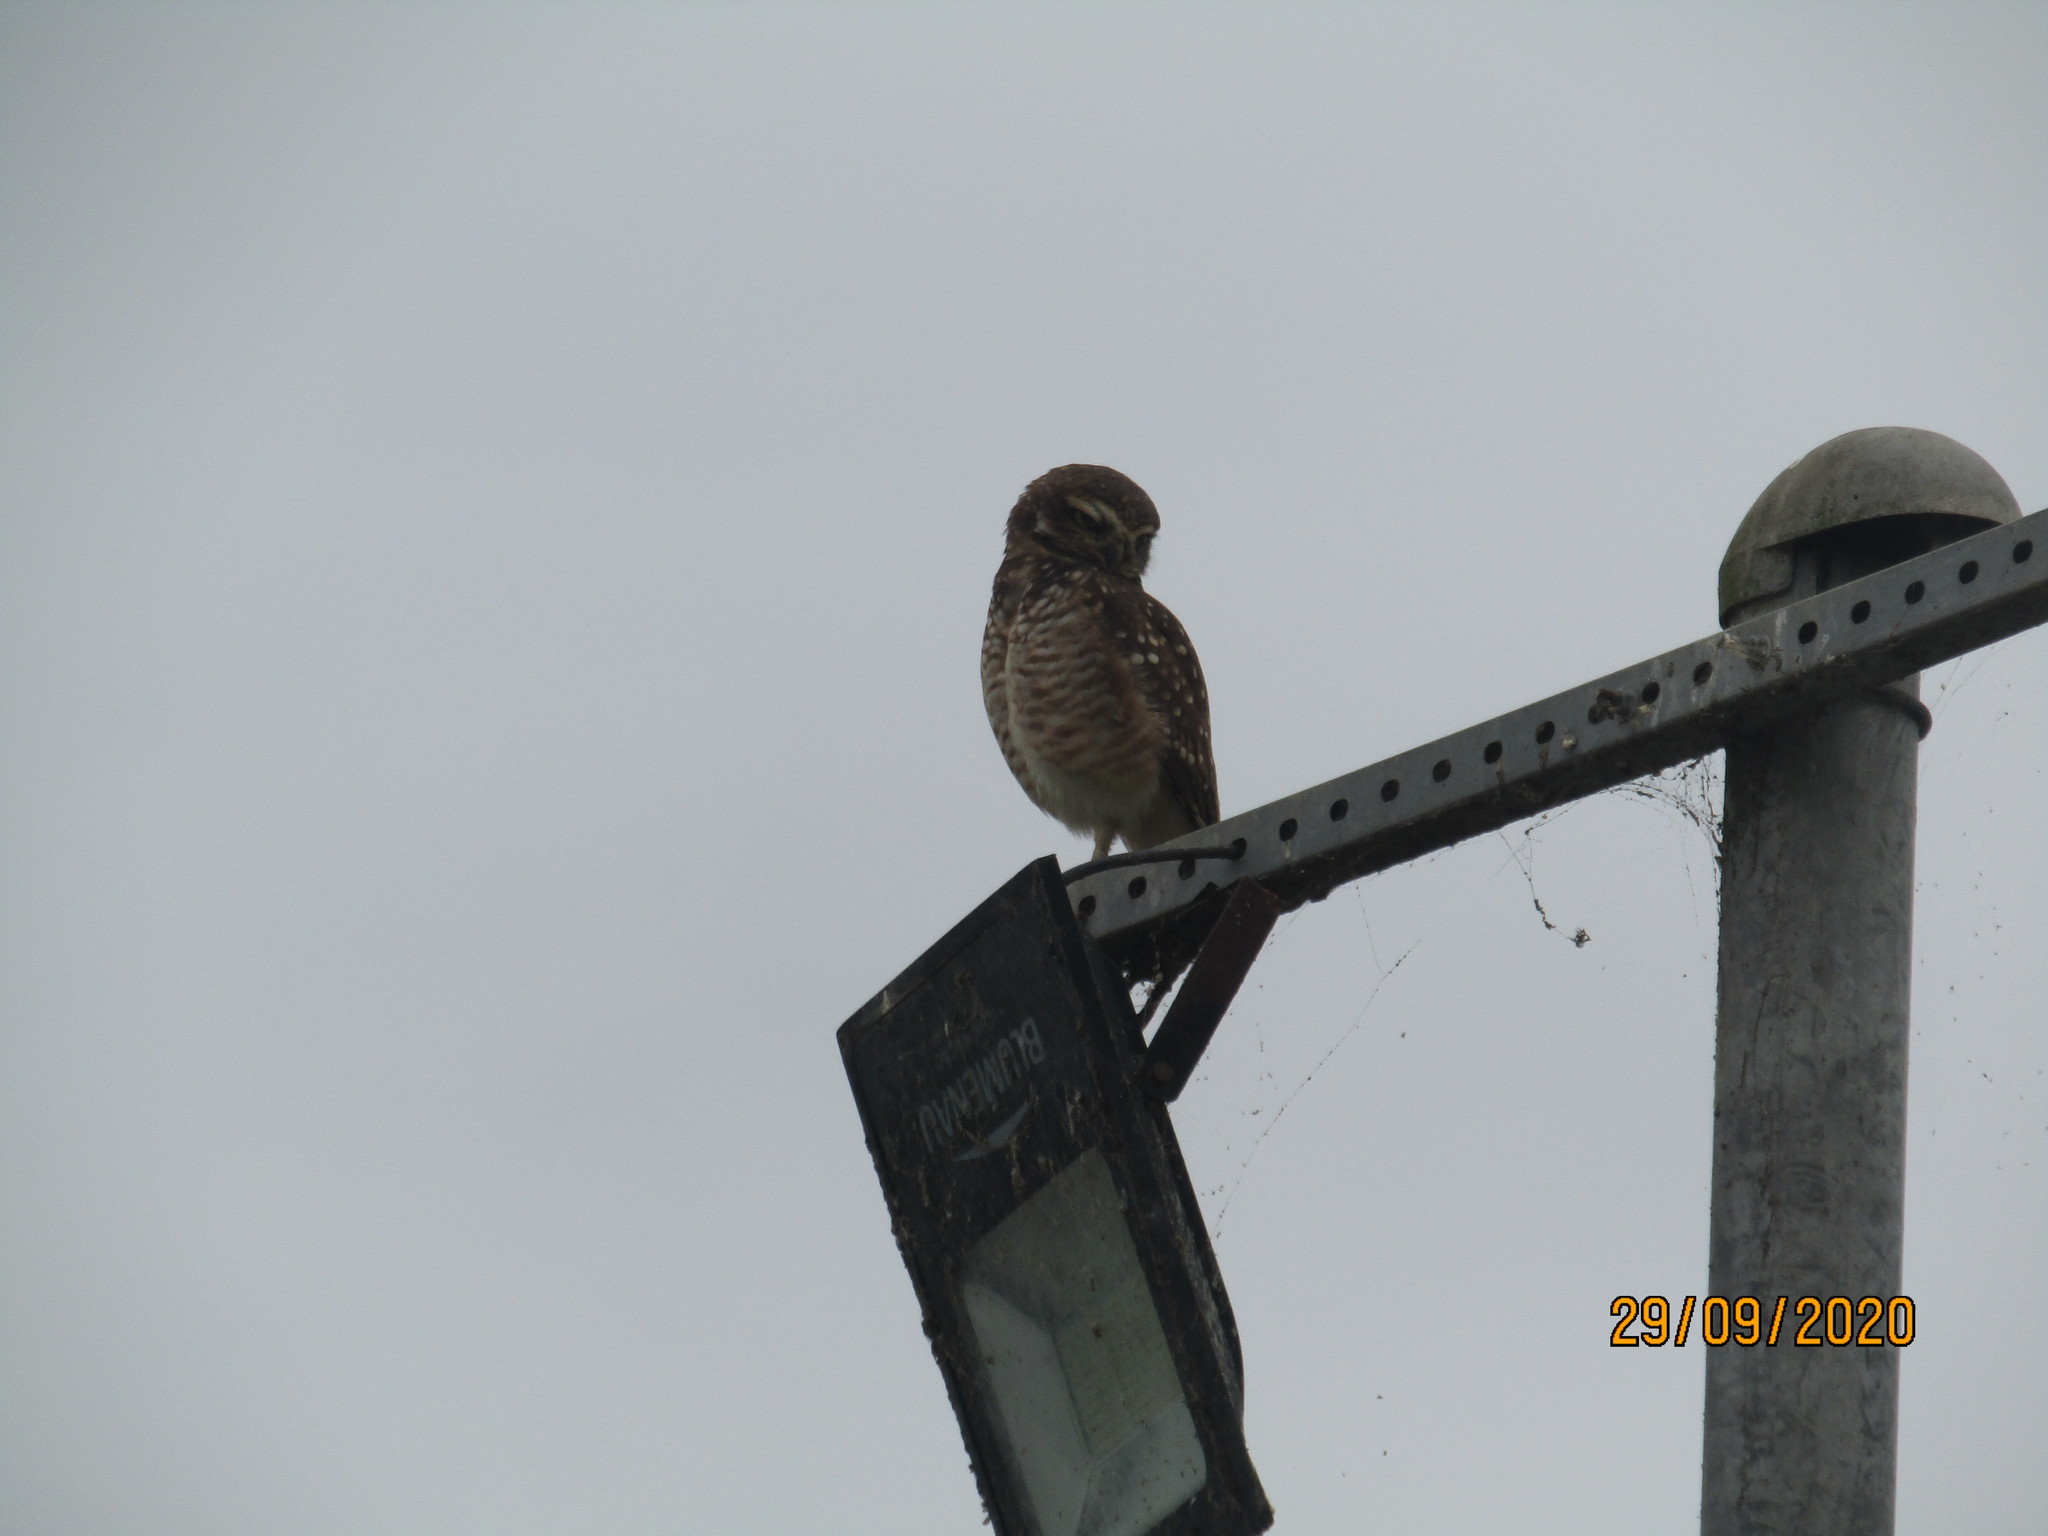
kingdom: Animalia
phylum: Chordata
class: Aves
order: Strigiformes
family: Strigidae
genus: Athene
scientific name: Athene cunicularia
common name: Burrowing owl
